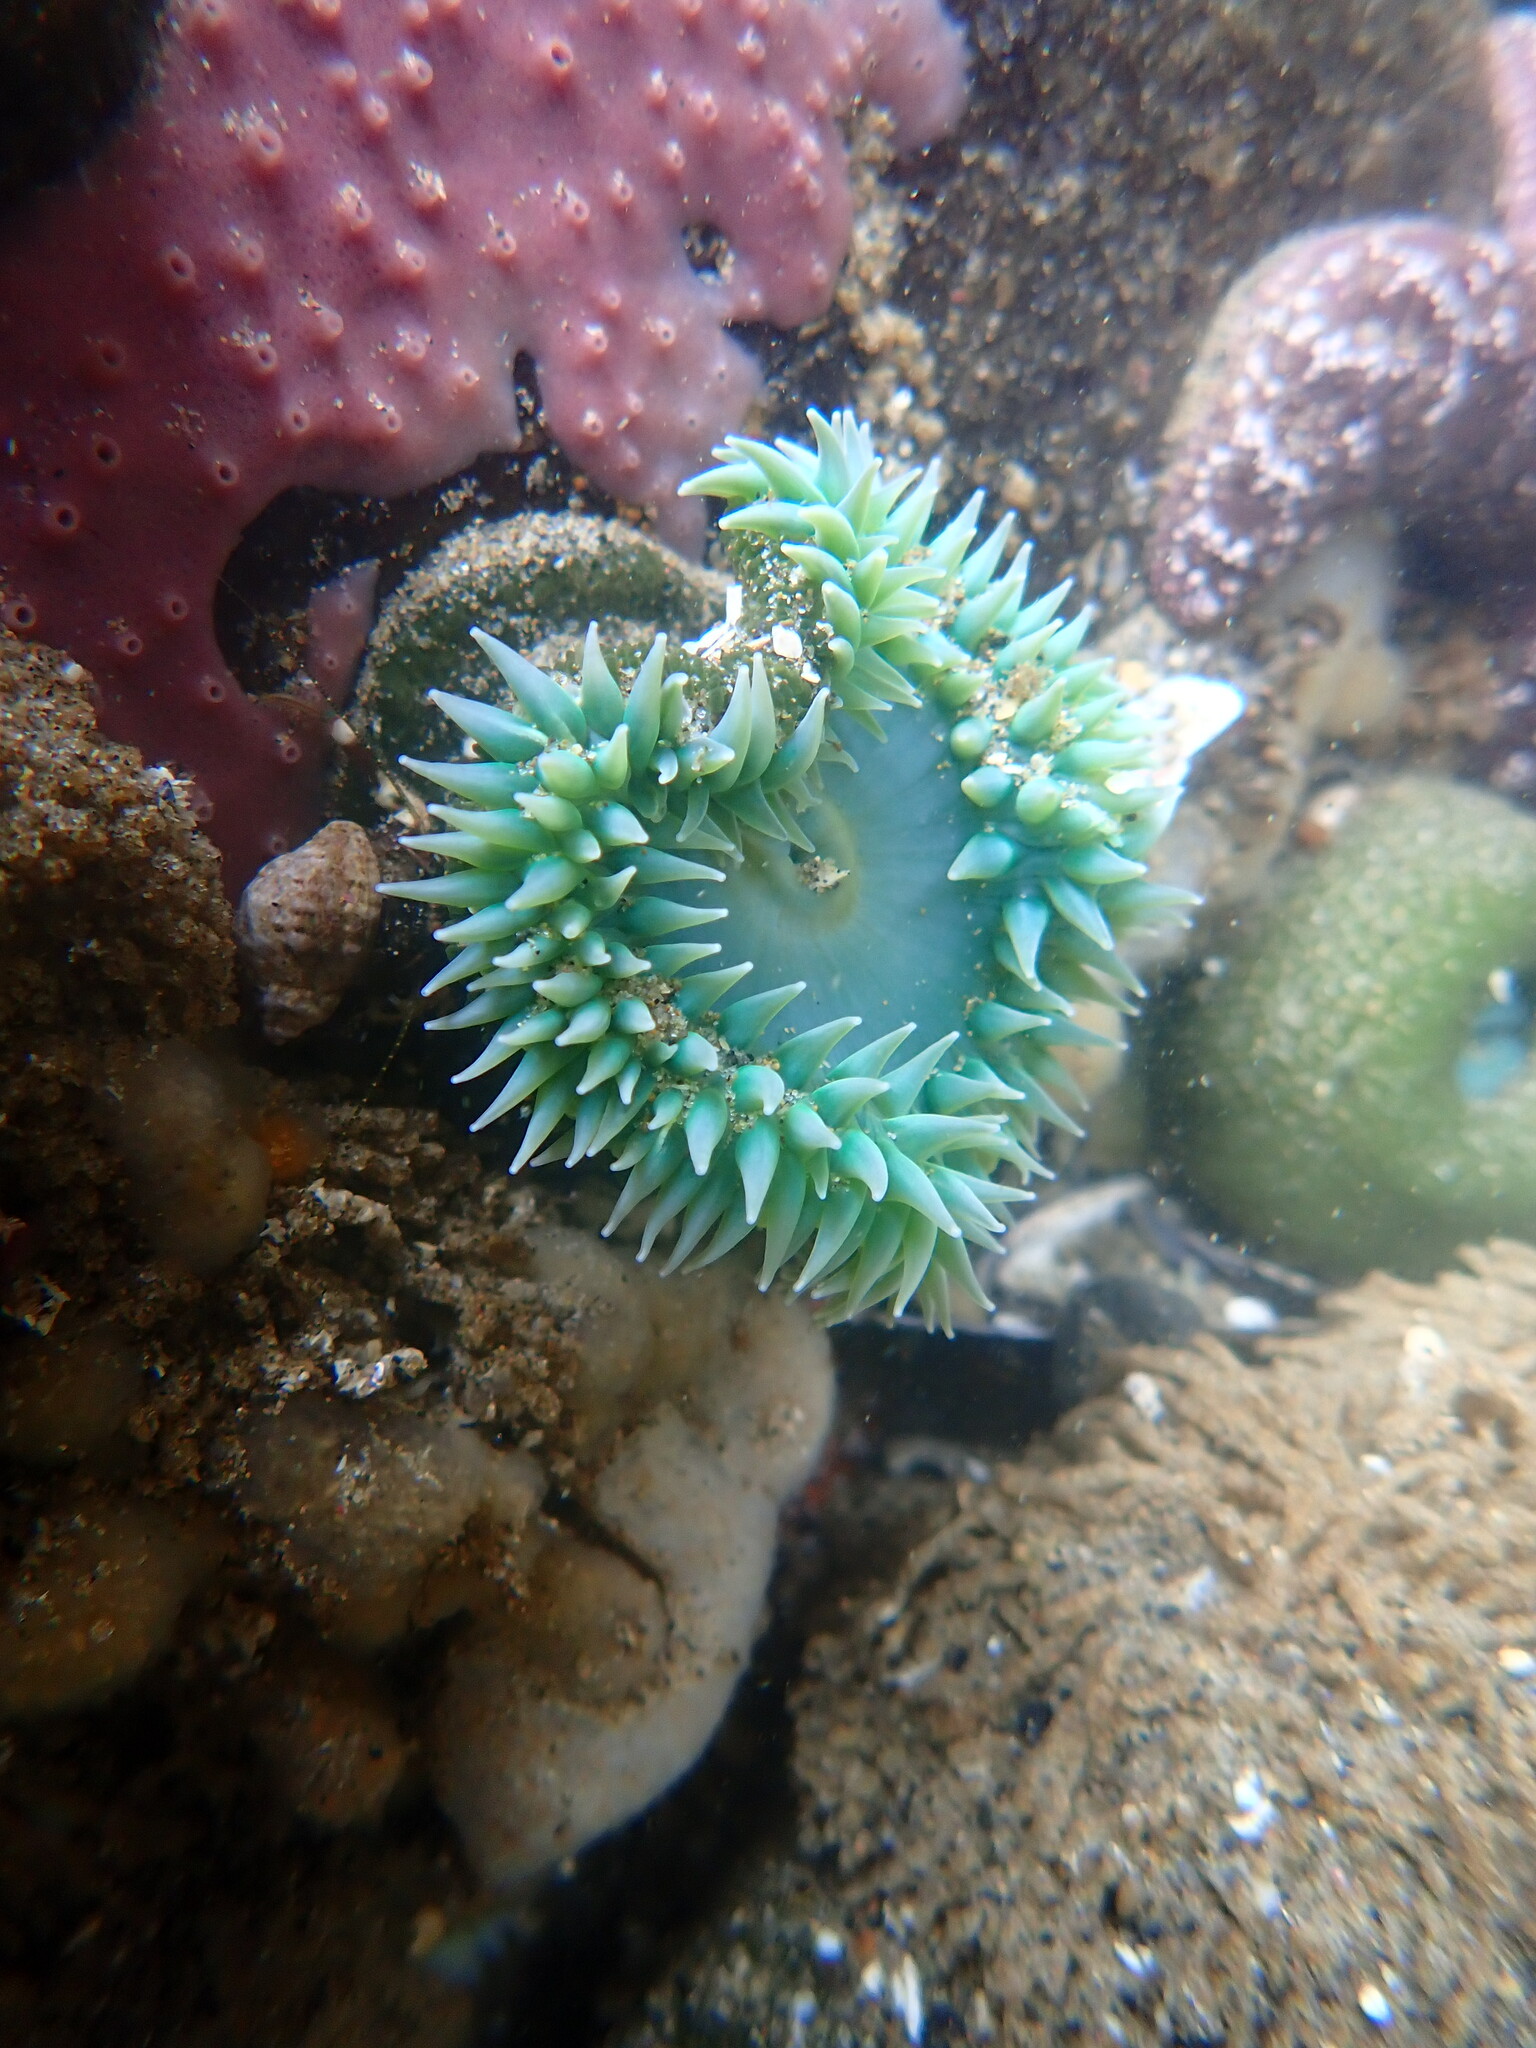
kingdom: Animalia
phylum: Cnidaria
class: Anthozoa
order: Actiniaria
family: Actiniidae
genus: Anthopleura
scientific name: Anthopleura xanthogrammica
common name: Giant green anemone
